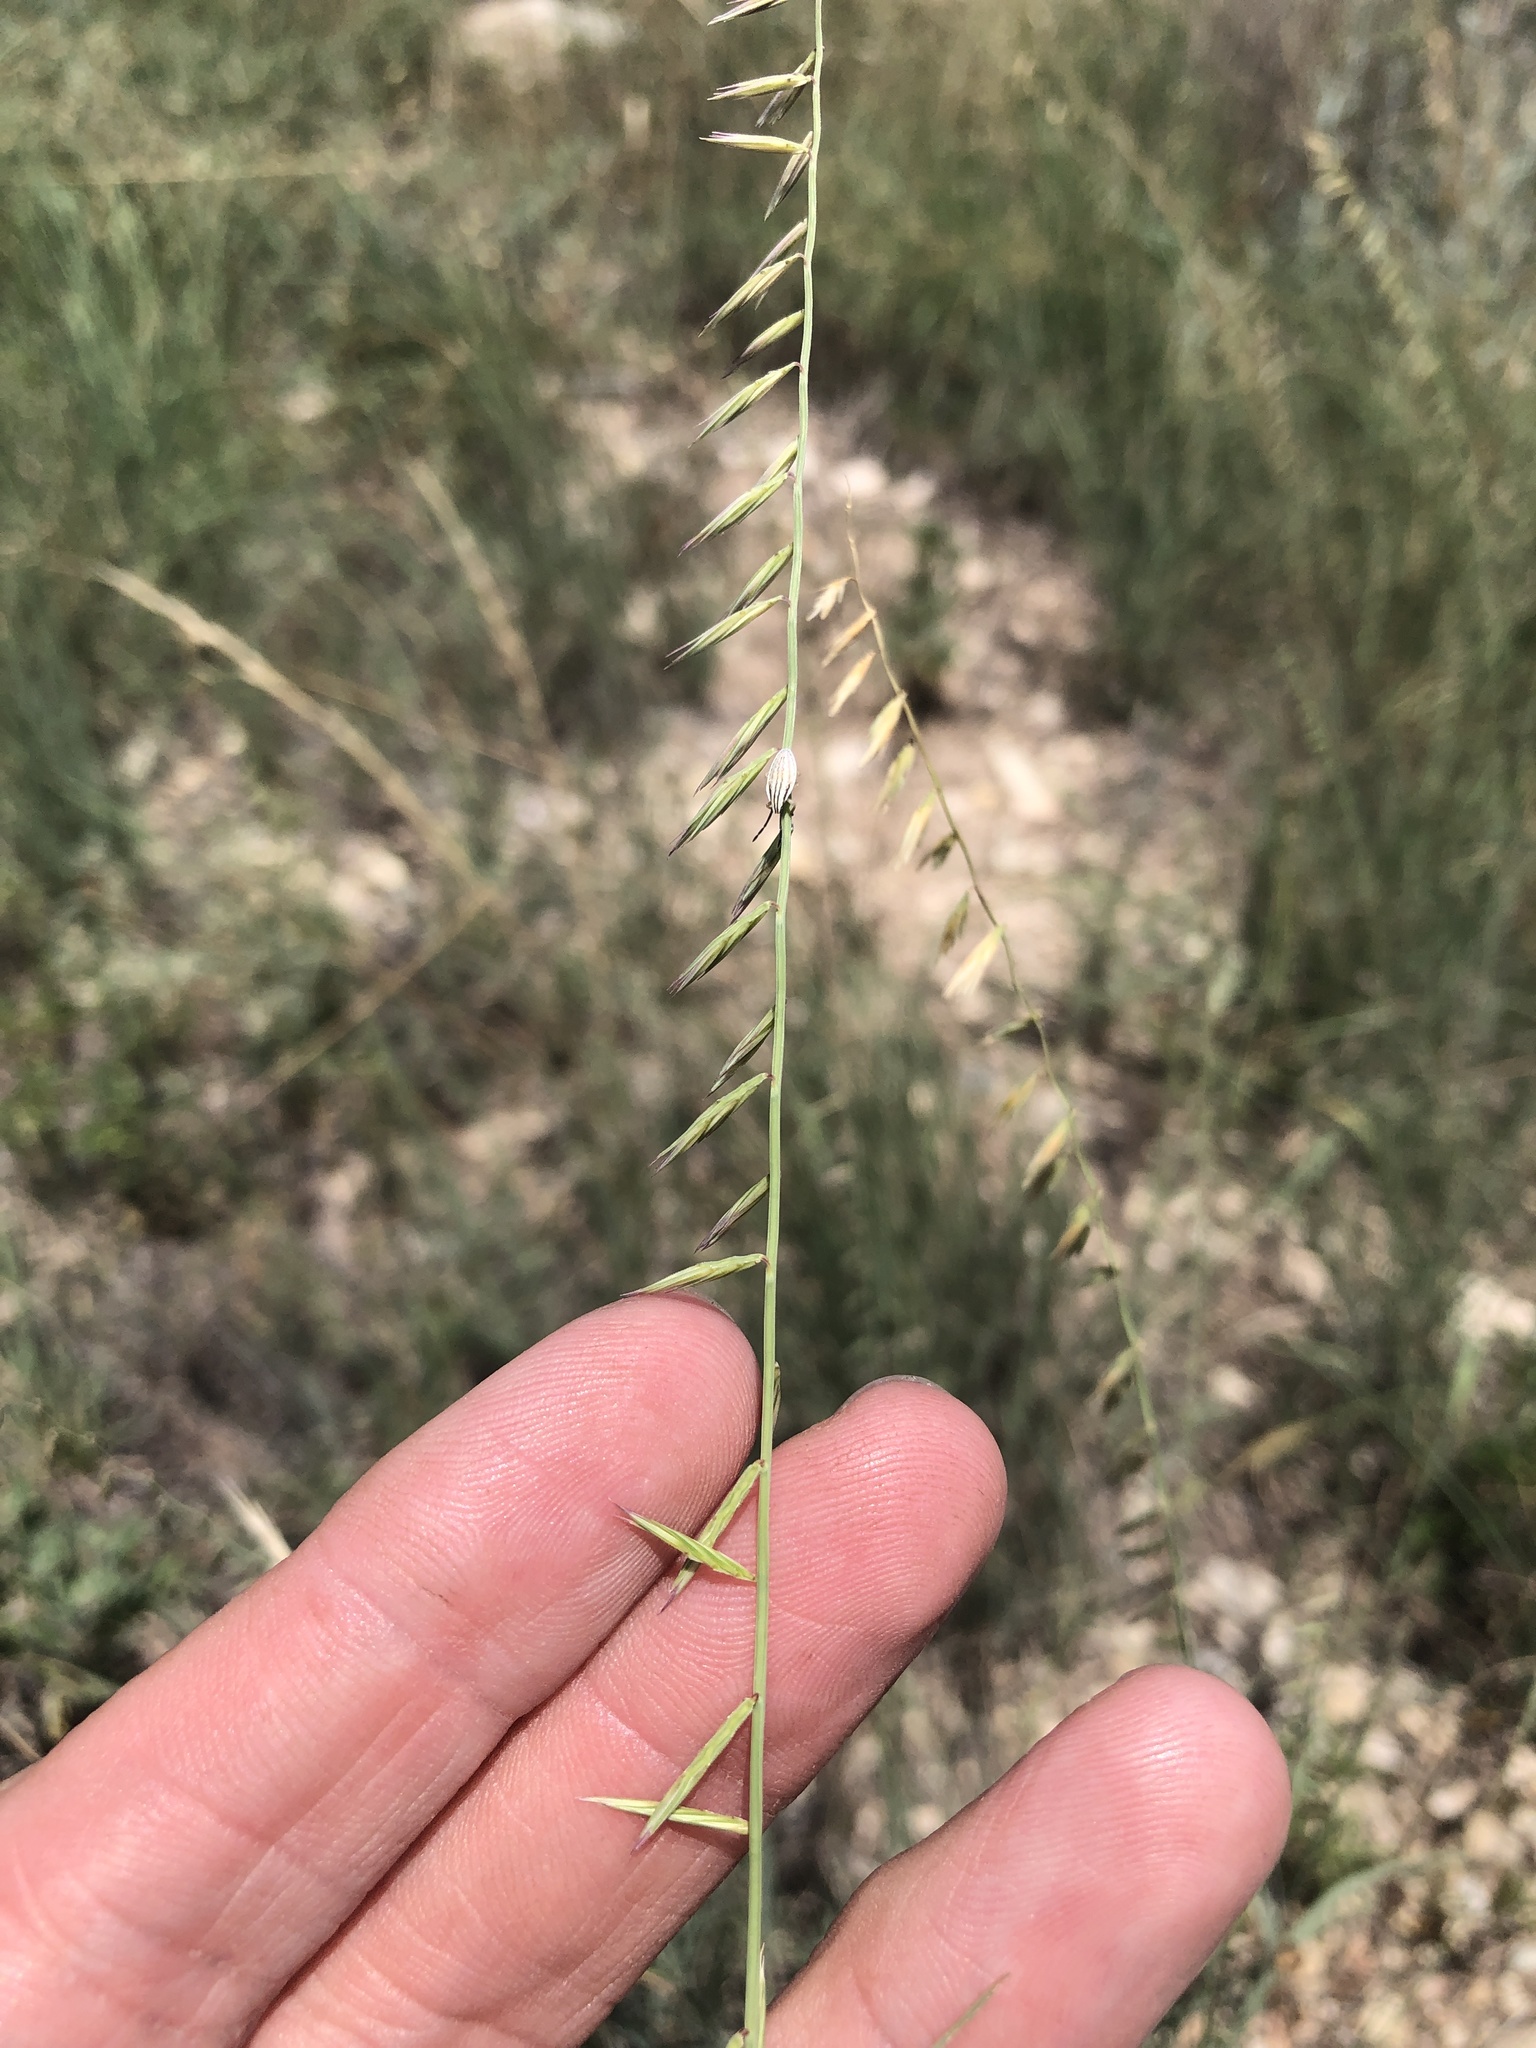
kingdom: Plantae
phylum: Tracheophyta
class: Liliopsida
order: Poales
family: Poaceae
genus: Bouteloua
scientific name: Bouteloua curtipendula
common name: Side-oats grama
